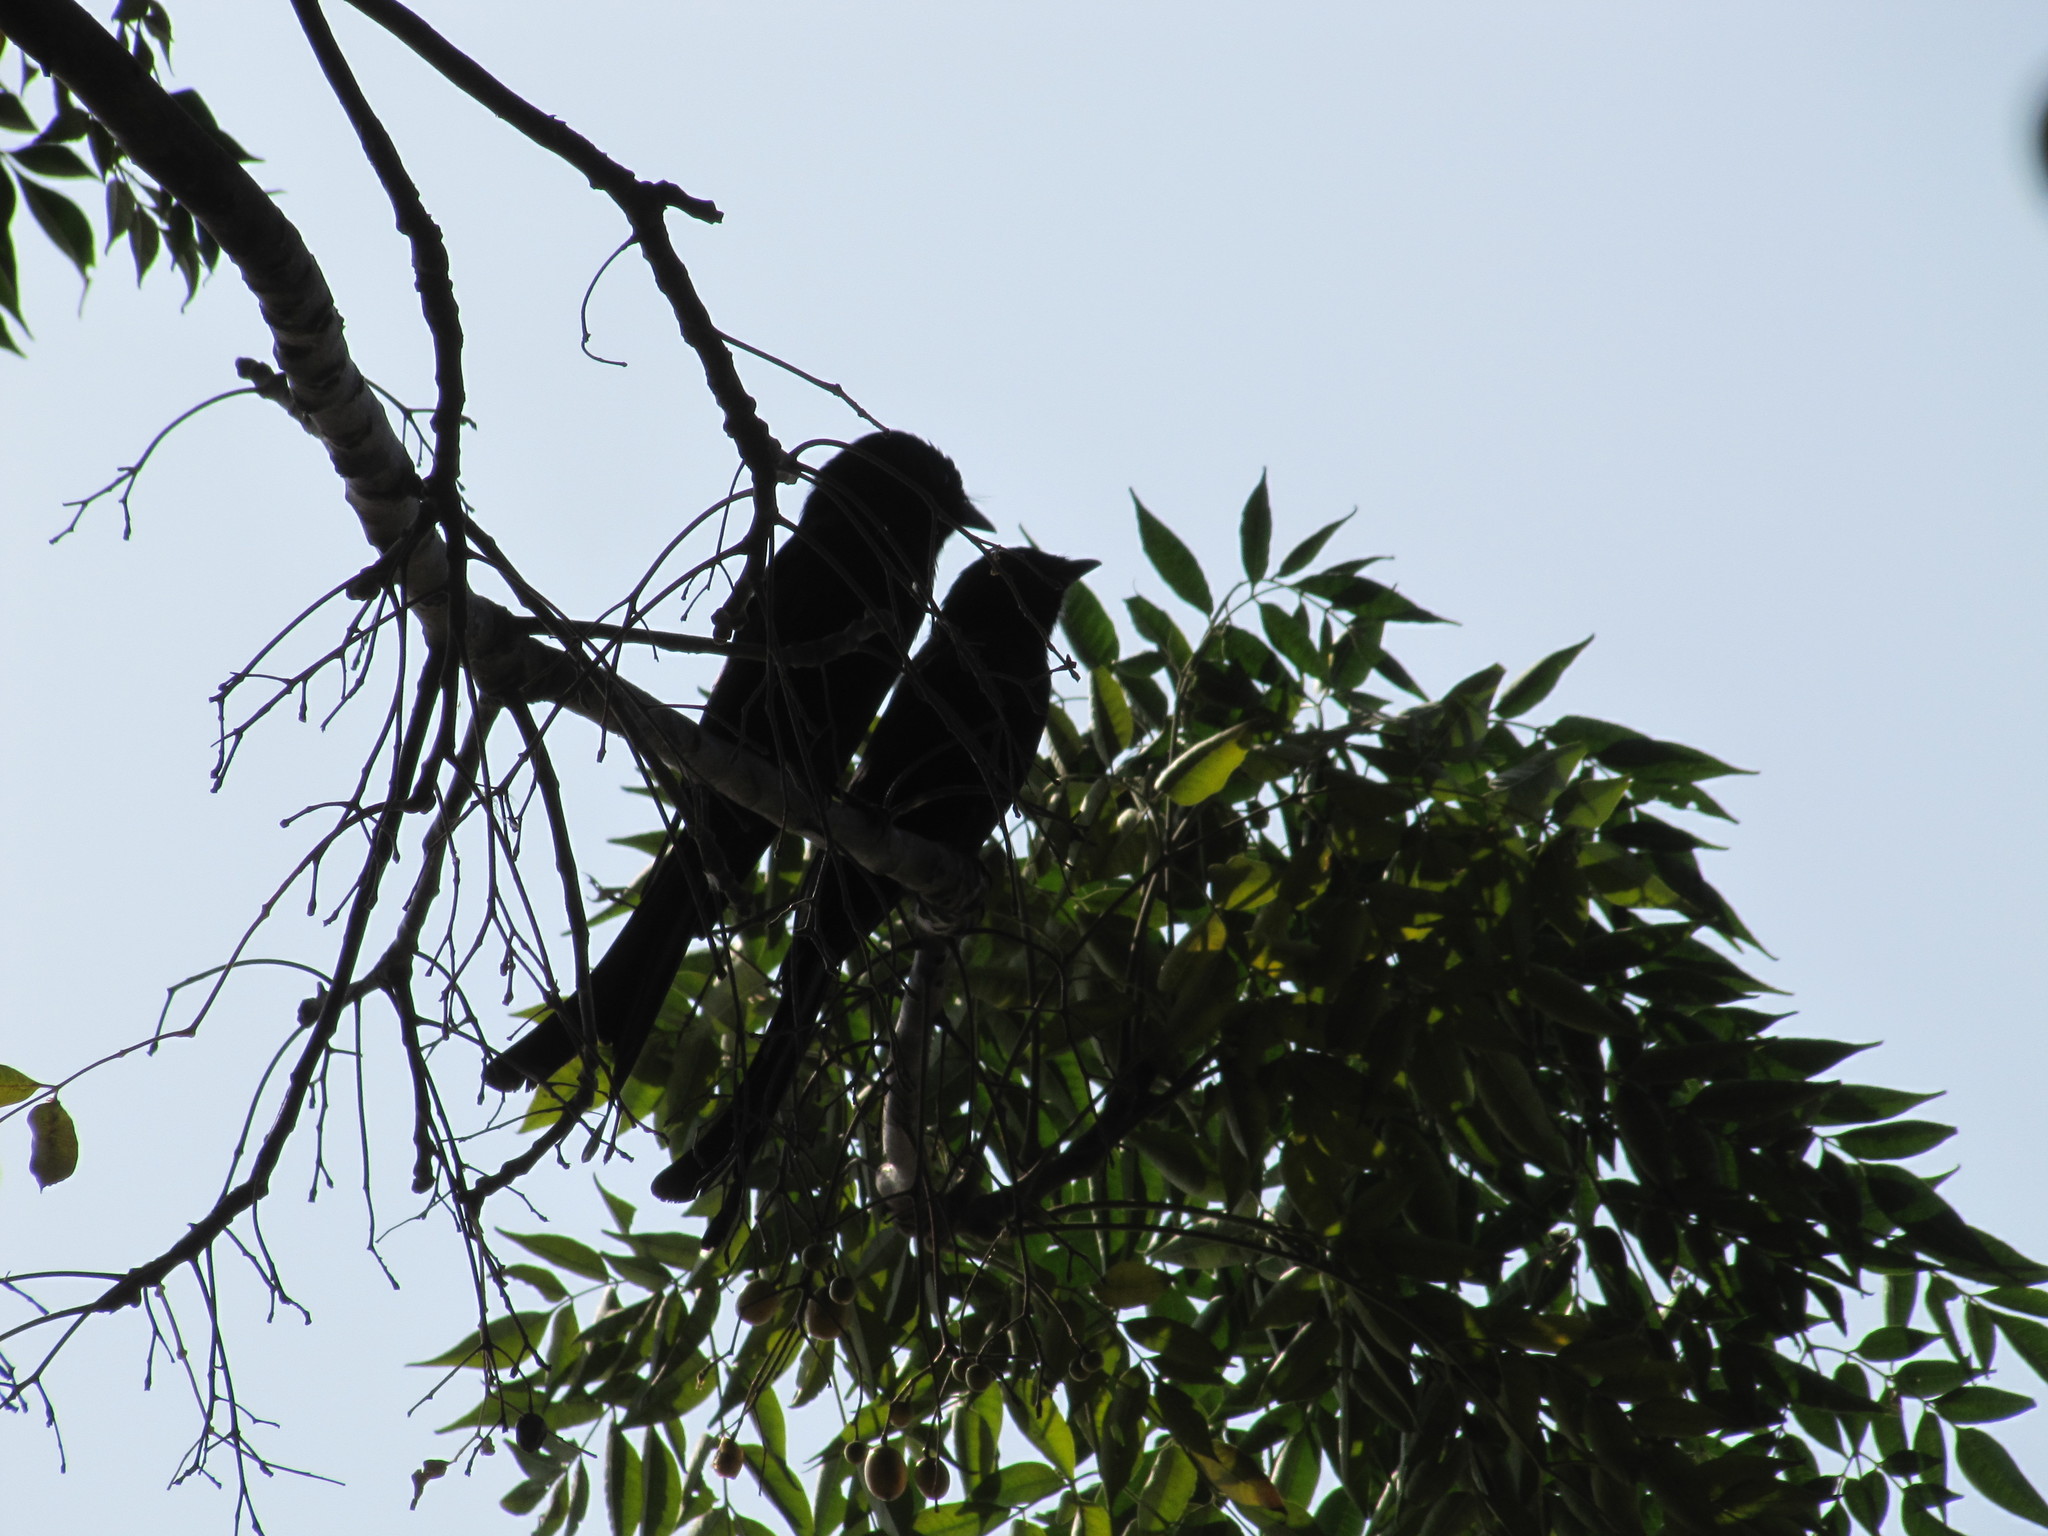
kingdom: Animalia
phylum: Chordata
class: Aves
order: Passeriformes
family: Dicruridae
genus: Dicrurus
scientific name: Dicrurus macrocercus
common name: Black drongo
